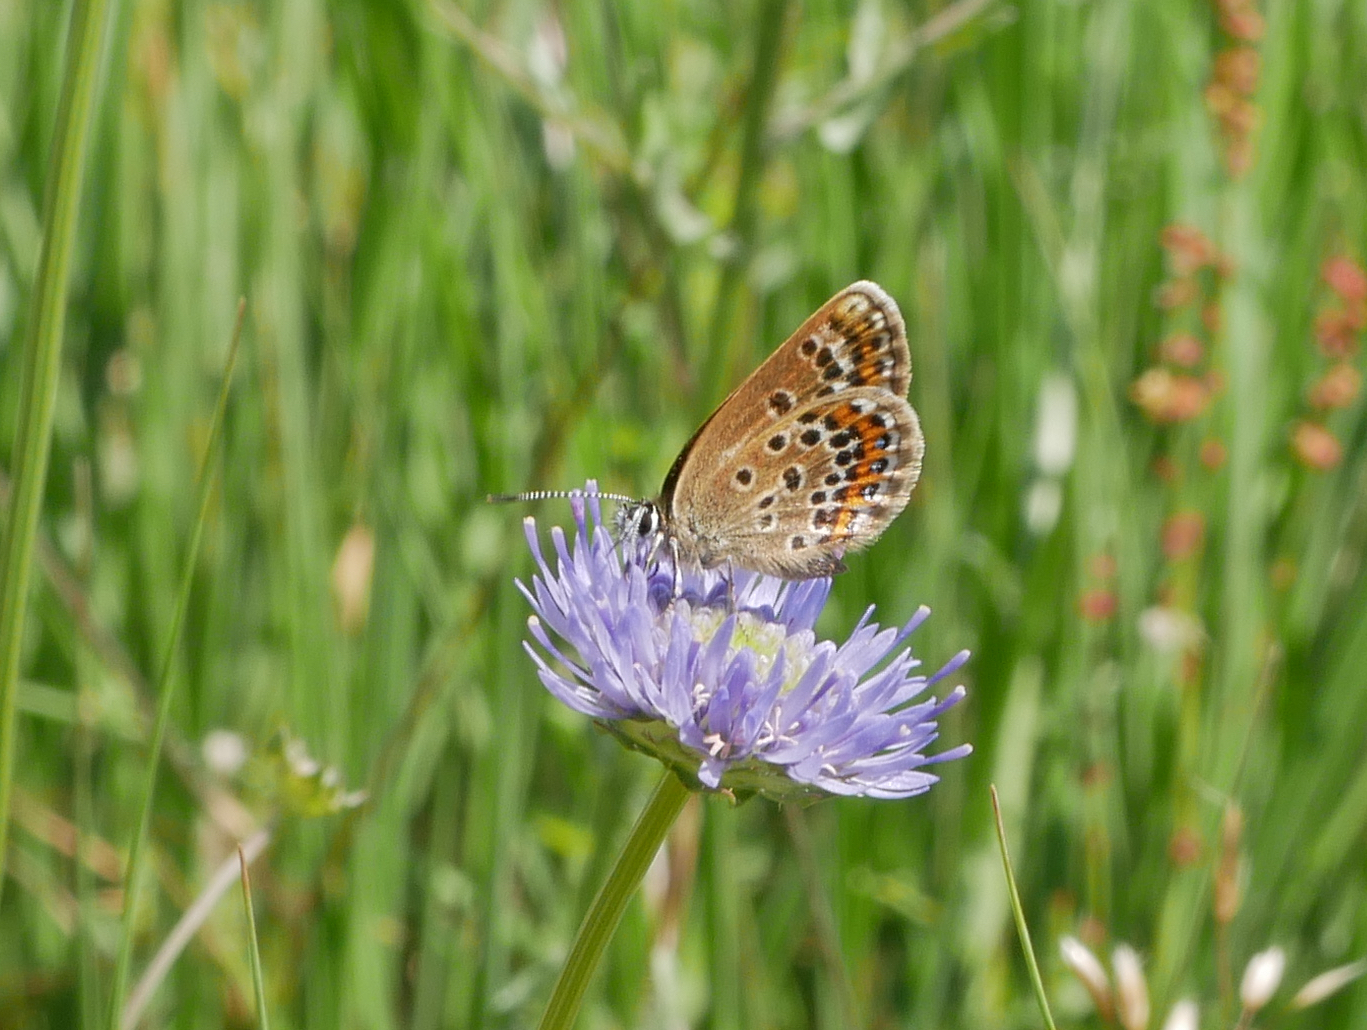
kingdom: Animalia
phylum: Arthropoda
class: Insecta
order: Lepidoptera
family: Lycaenidae
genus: Plebejus
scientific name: Plebejus argus
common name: Silver-studded blue
